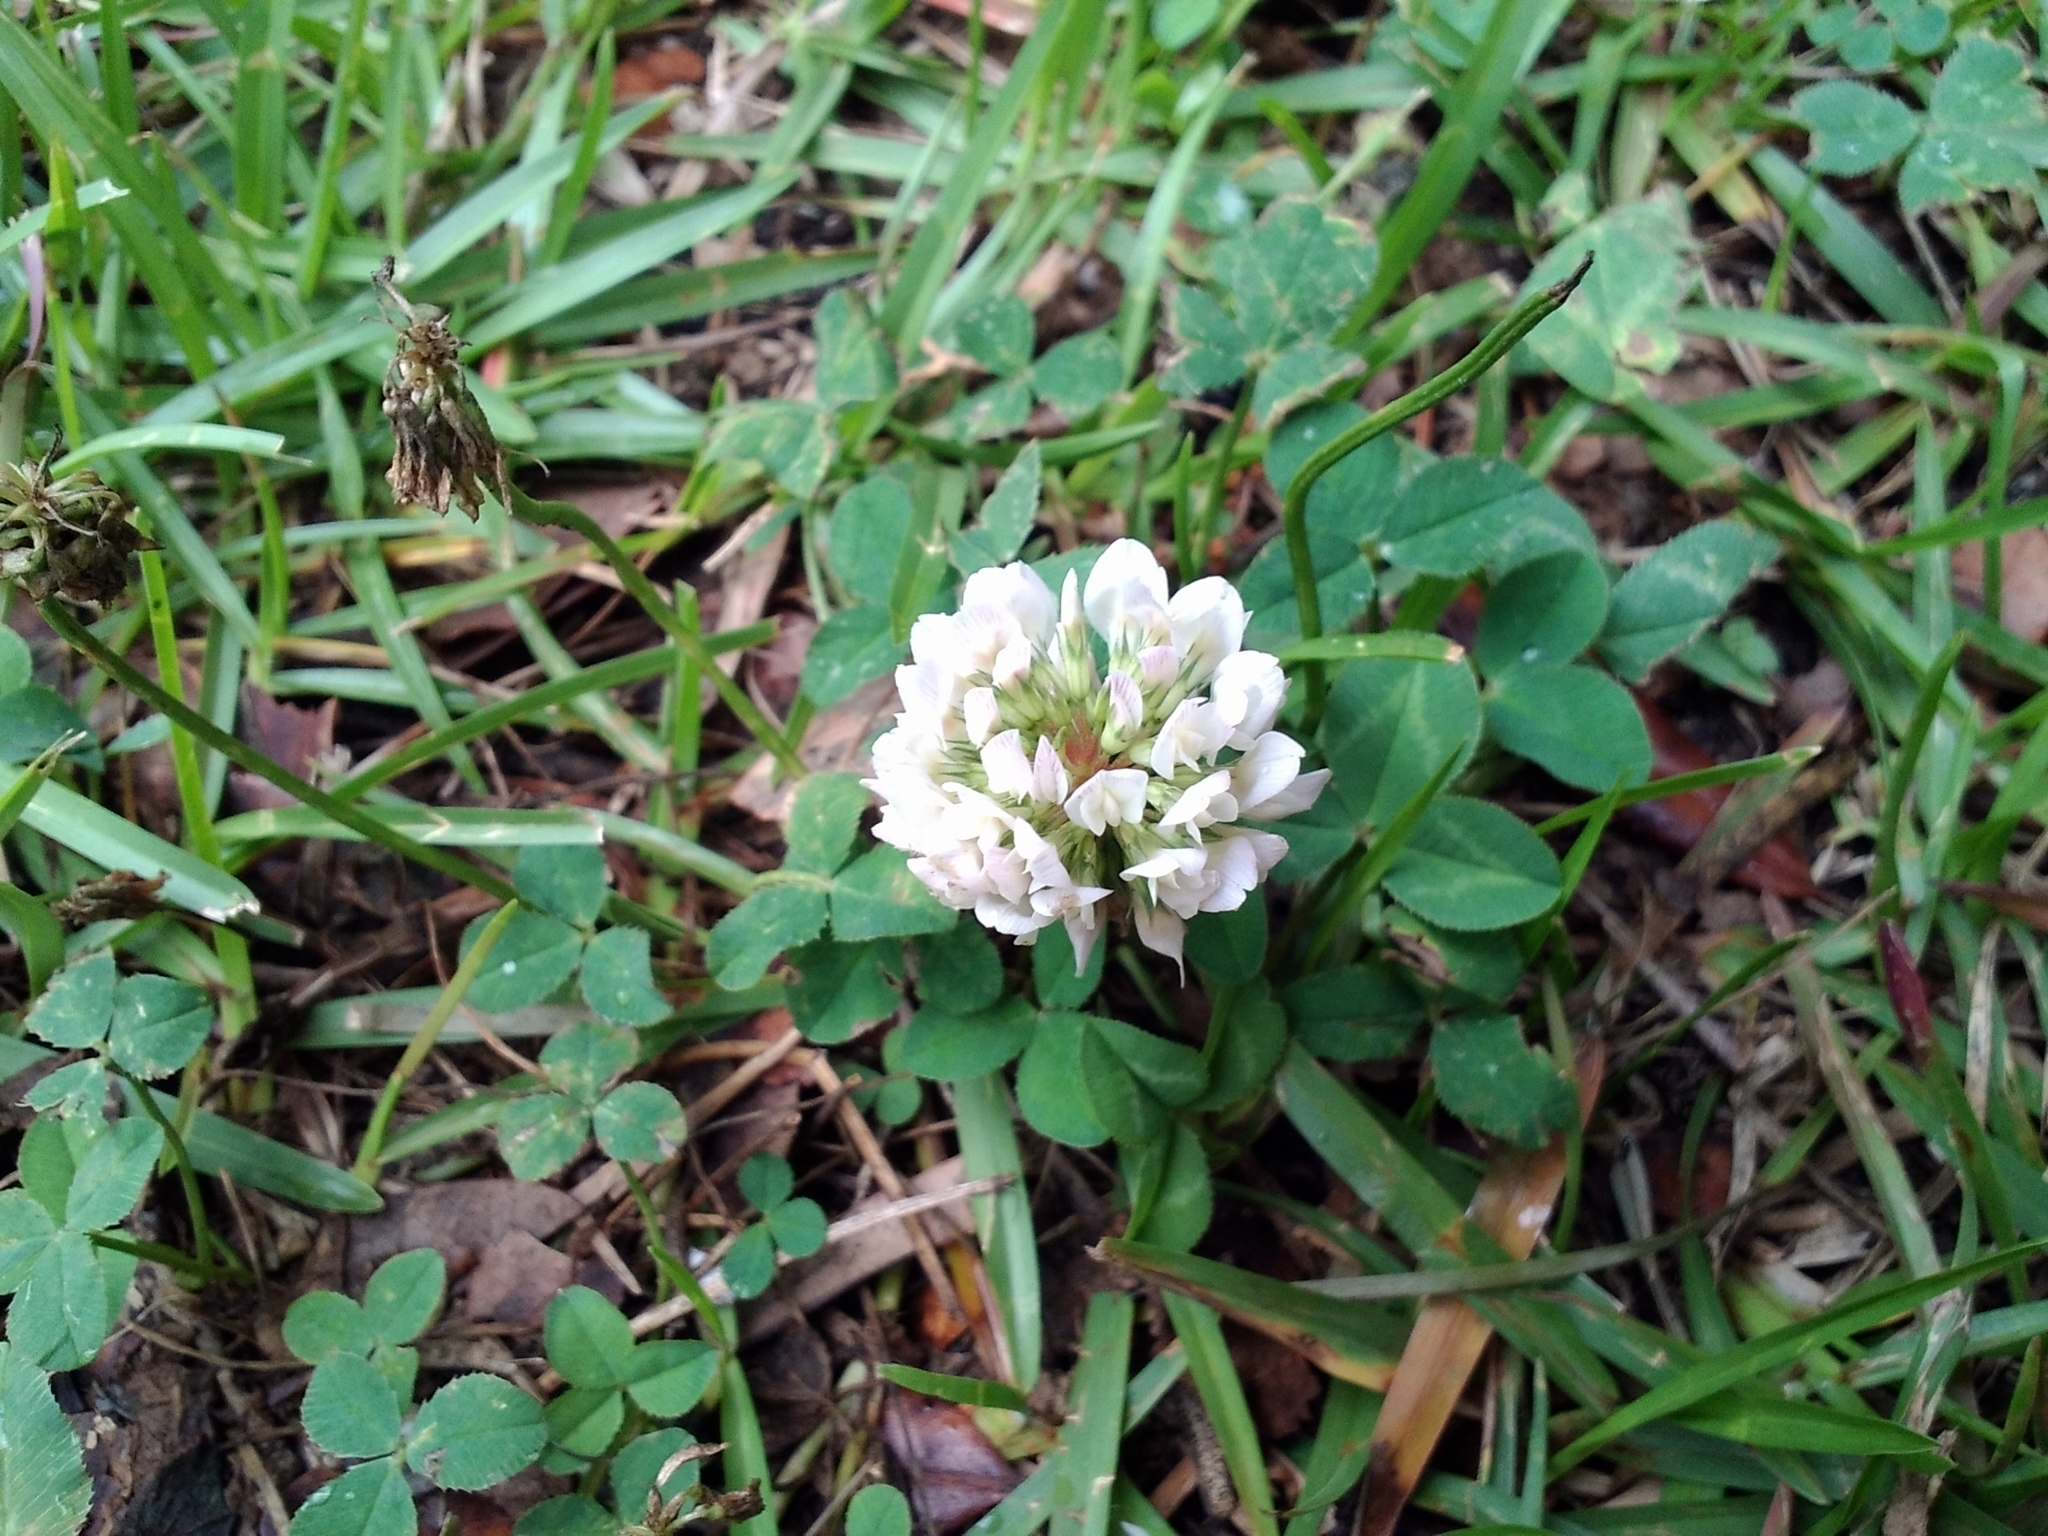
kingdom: Plantae
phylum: Tracheophyta
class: Magnoliopsida
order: Fabales
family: Fabaceae
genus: Trifolium
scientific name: Trifolium repens
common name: White clover
